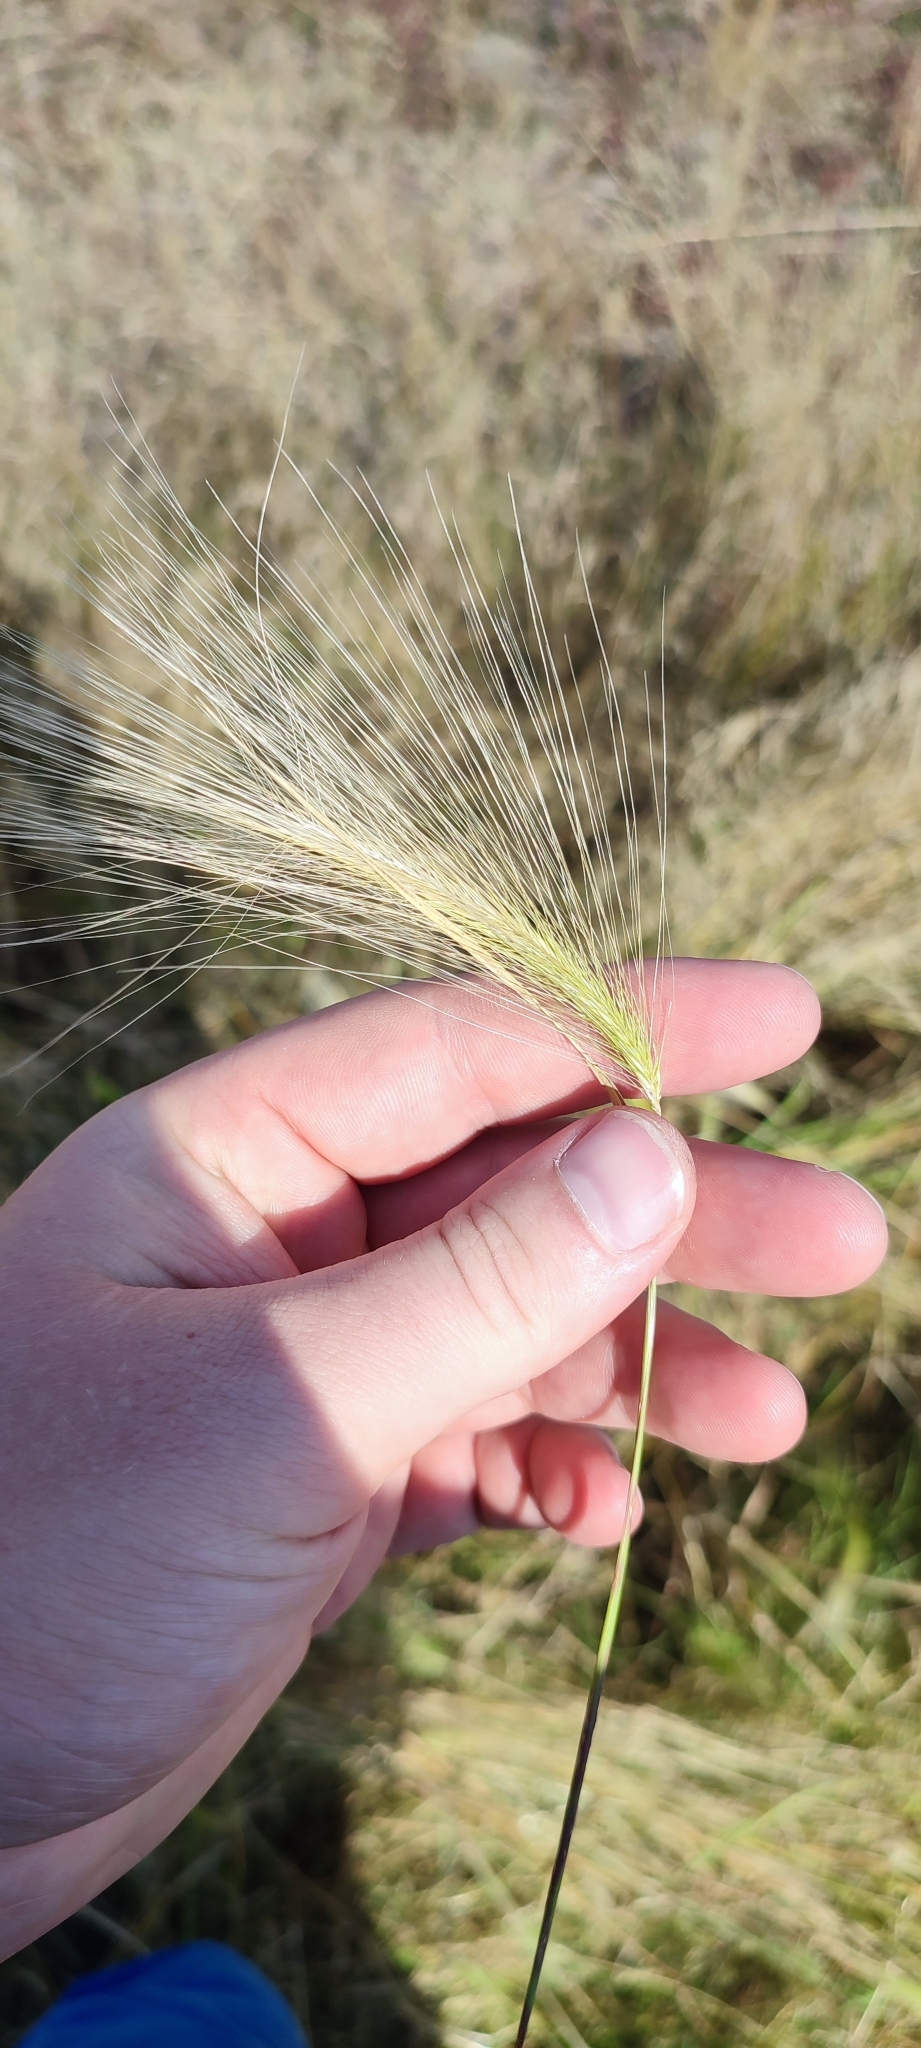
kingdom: Plantae
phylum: Tracheophyta
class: Liliopsida
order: Poales
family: Poaceae
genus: Hordeum
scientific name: Hordeum jubatum
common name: Foxtail barley
